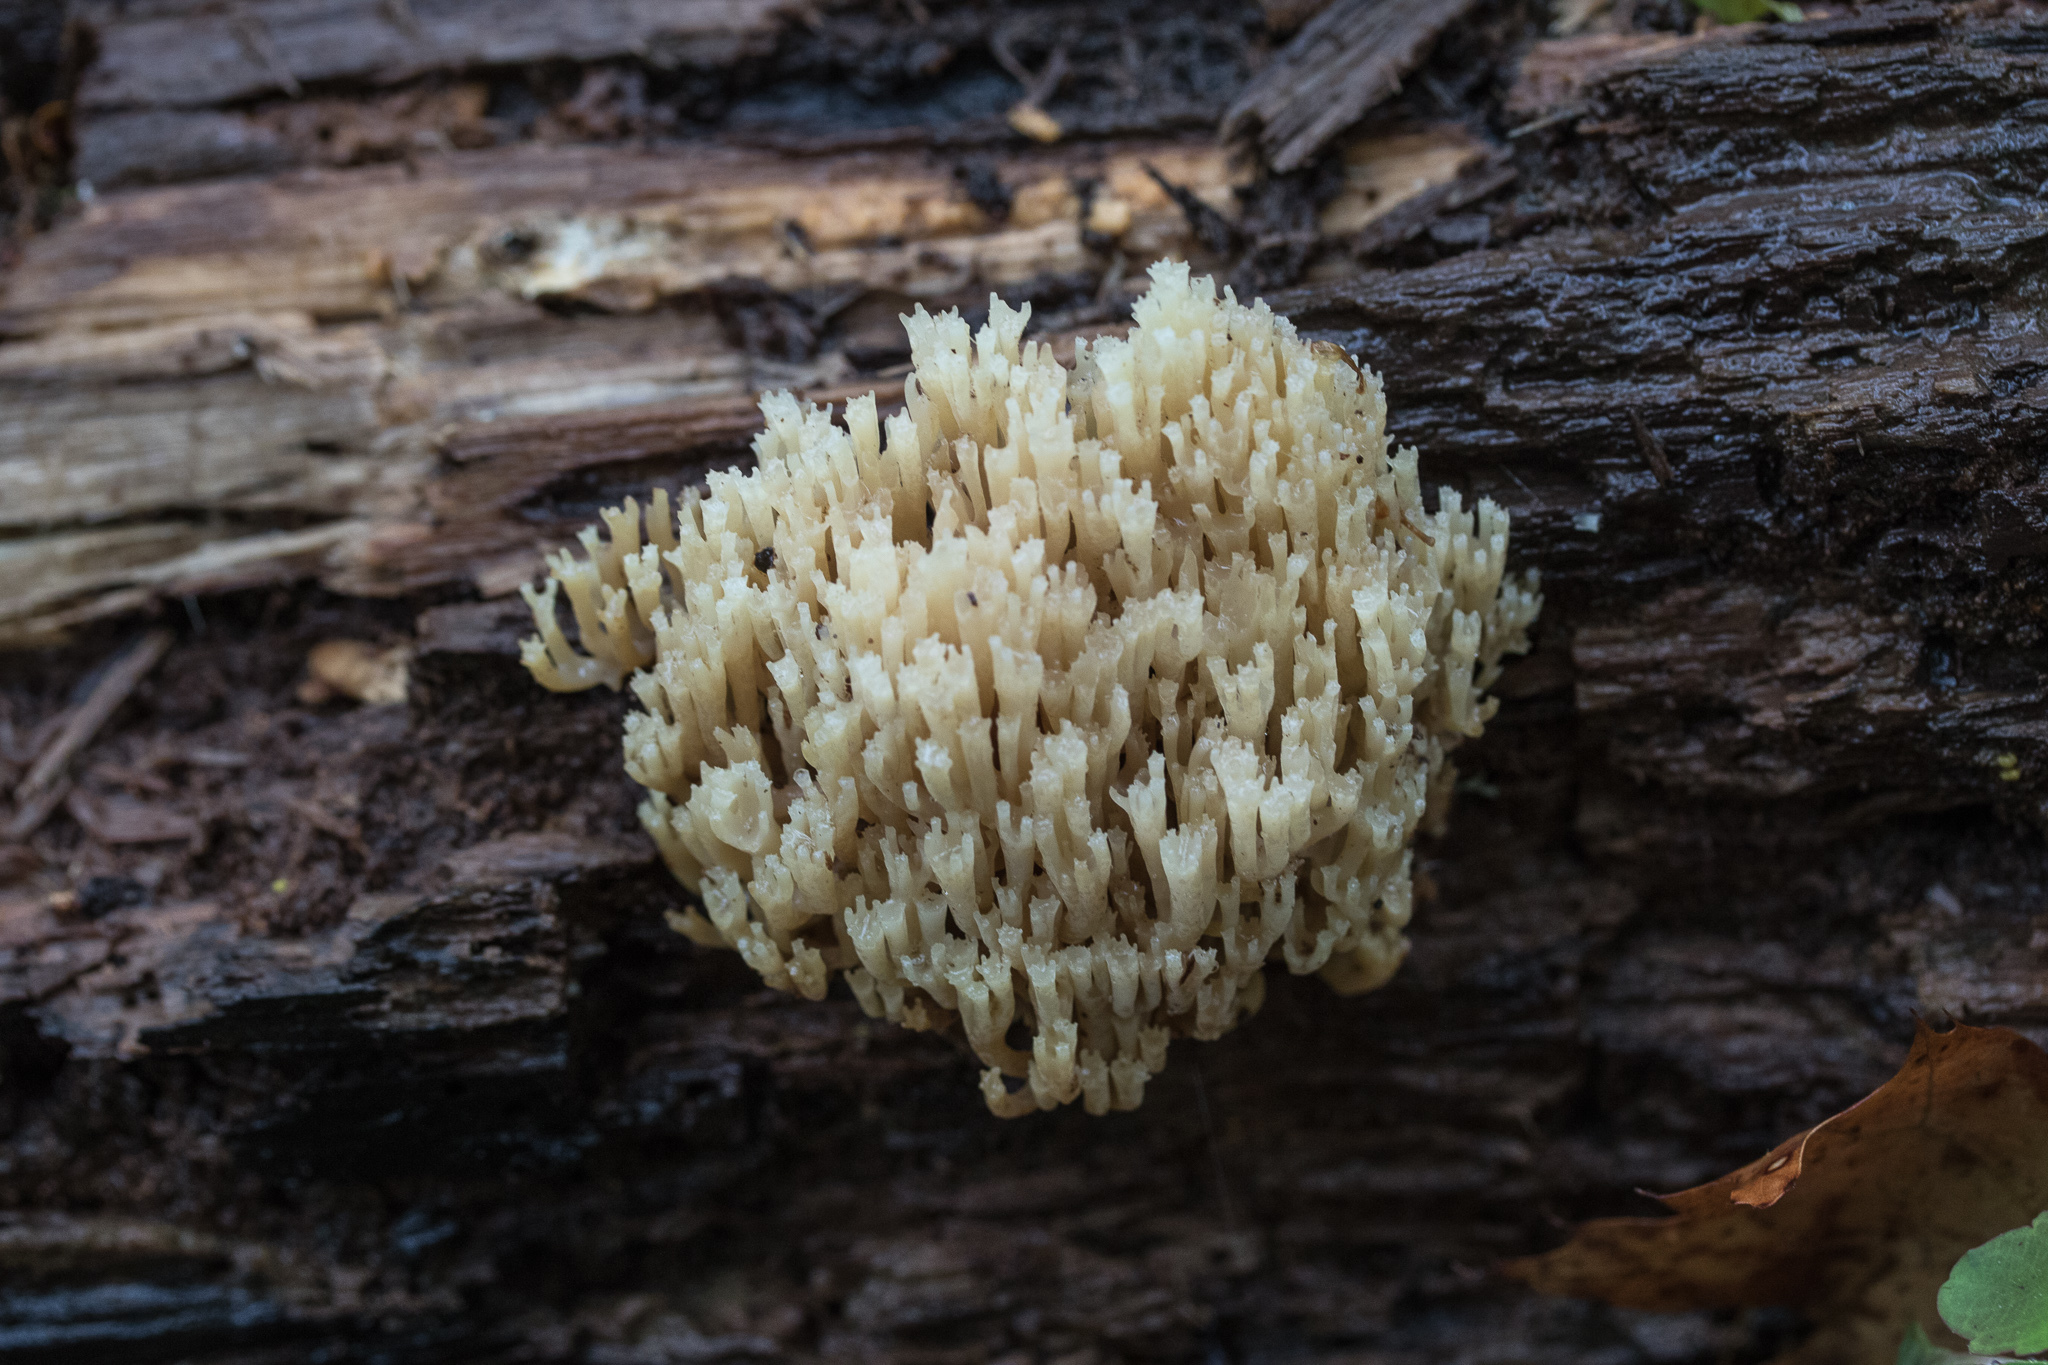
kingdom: Fungi
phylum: Basidiomycota
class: Agaricomycetes
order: Russulales
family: Auriscalpiaceae
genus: Artomyces
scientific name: Artomyces pyxidatus
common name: Crown-tipped coral fungus
